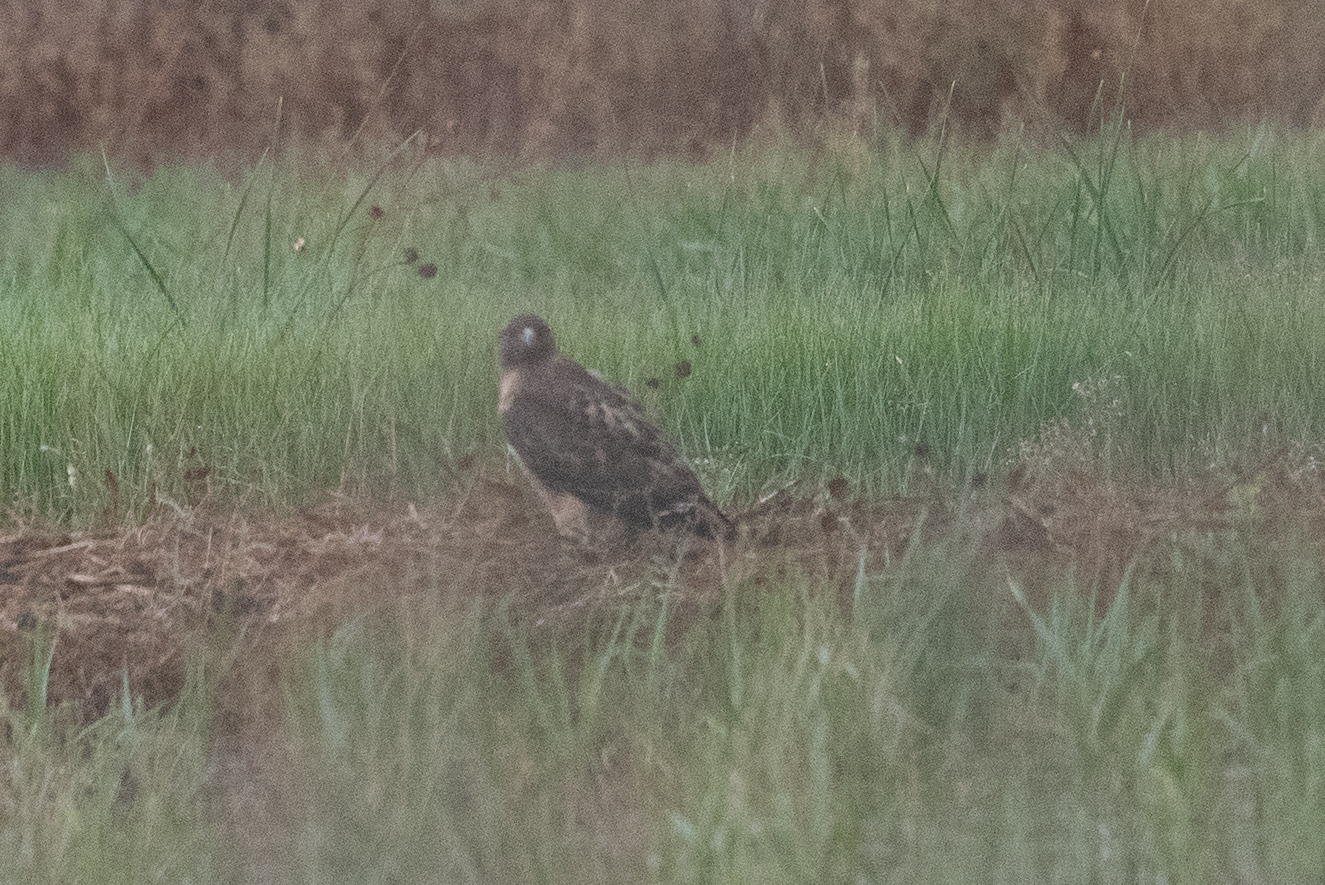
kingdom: Animalia
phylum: Chordata
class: Aves
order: Accipitriformes
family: Accipitridae
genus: Buteo
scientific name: Buteo jamaicensis
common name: Red-tailed hawk
